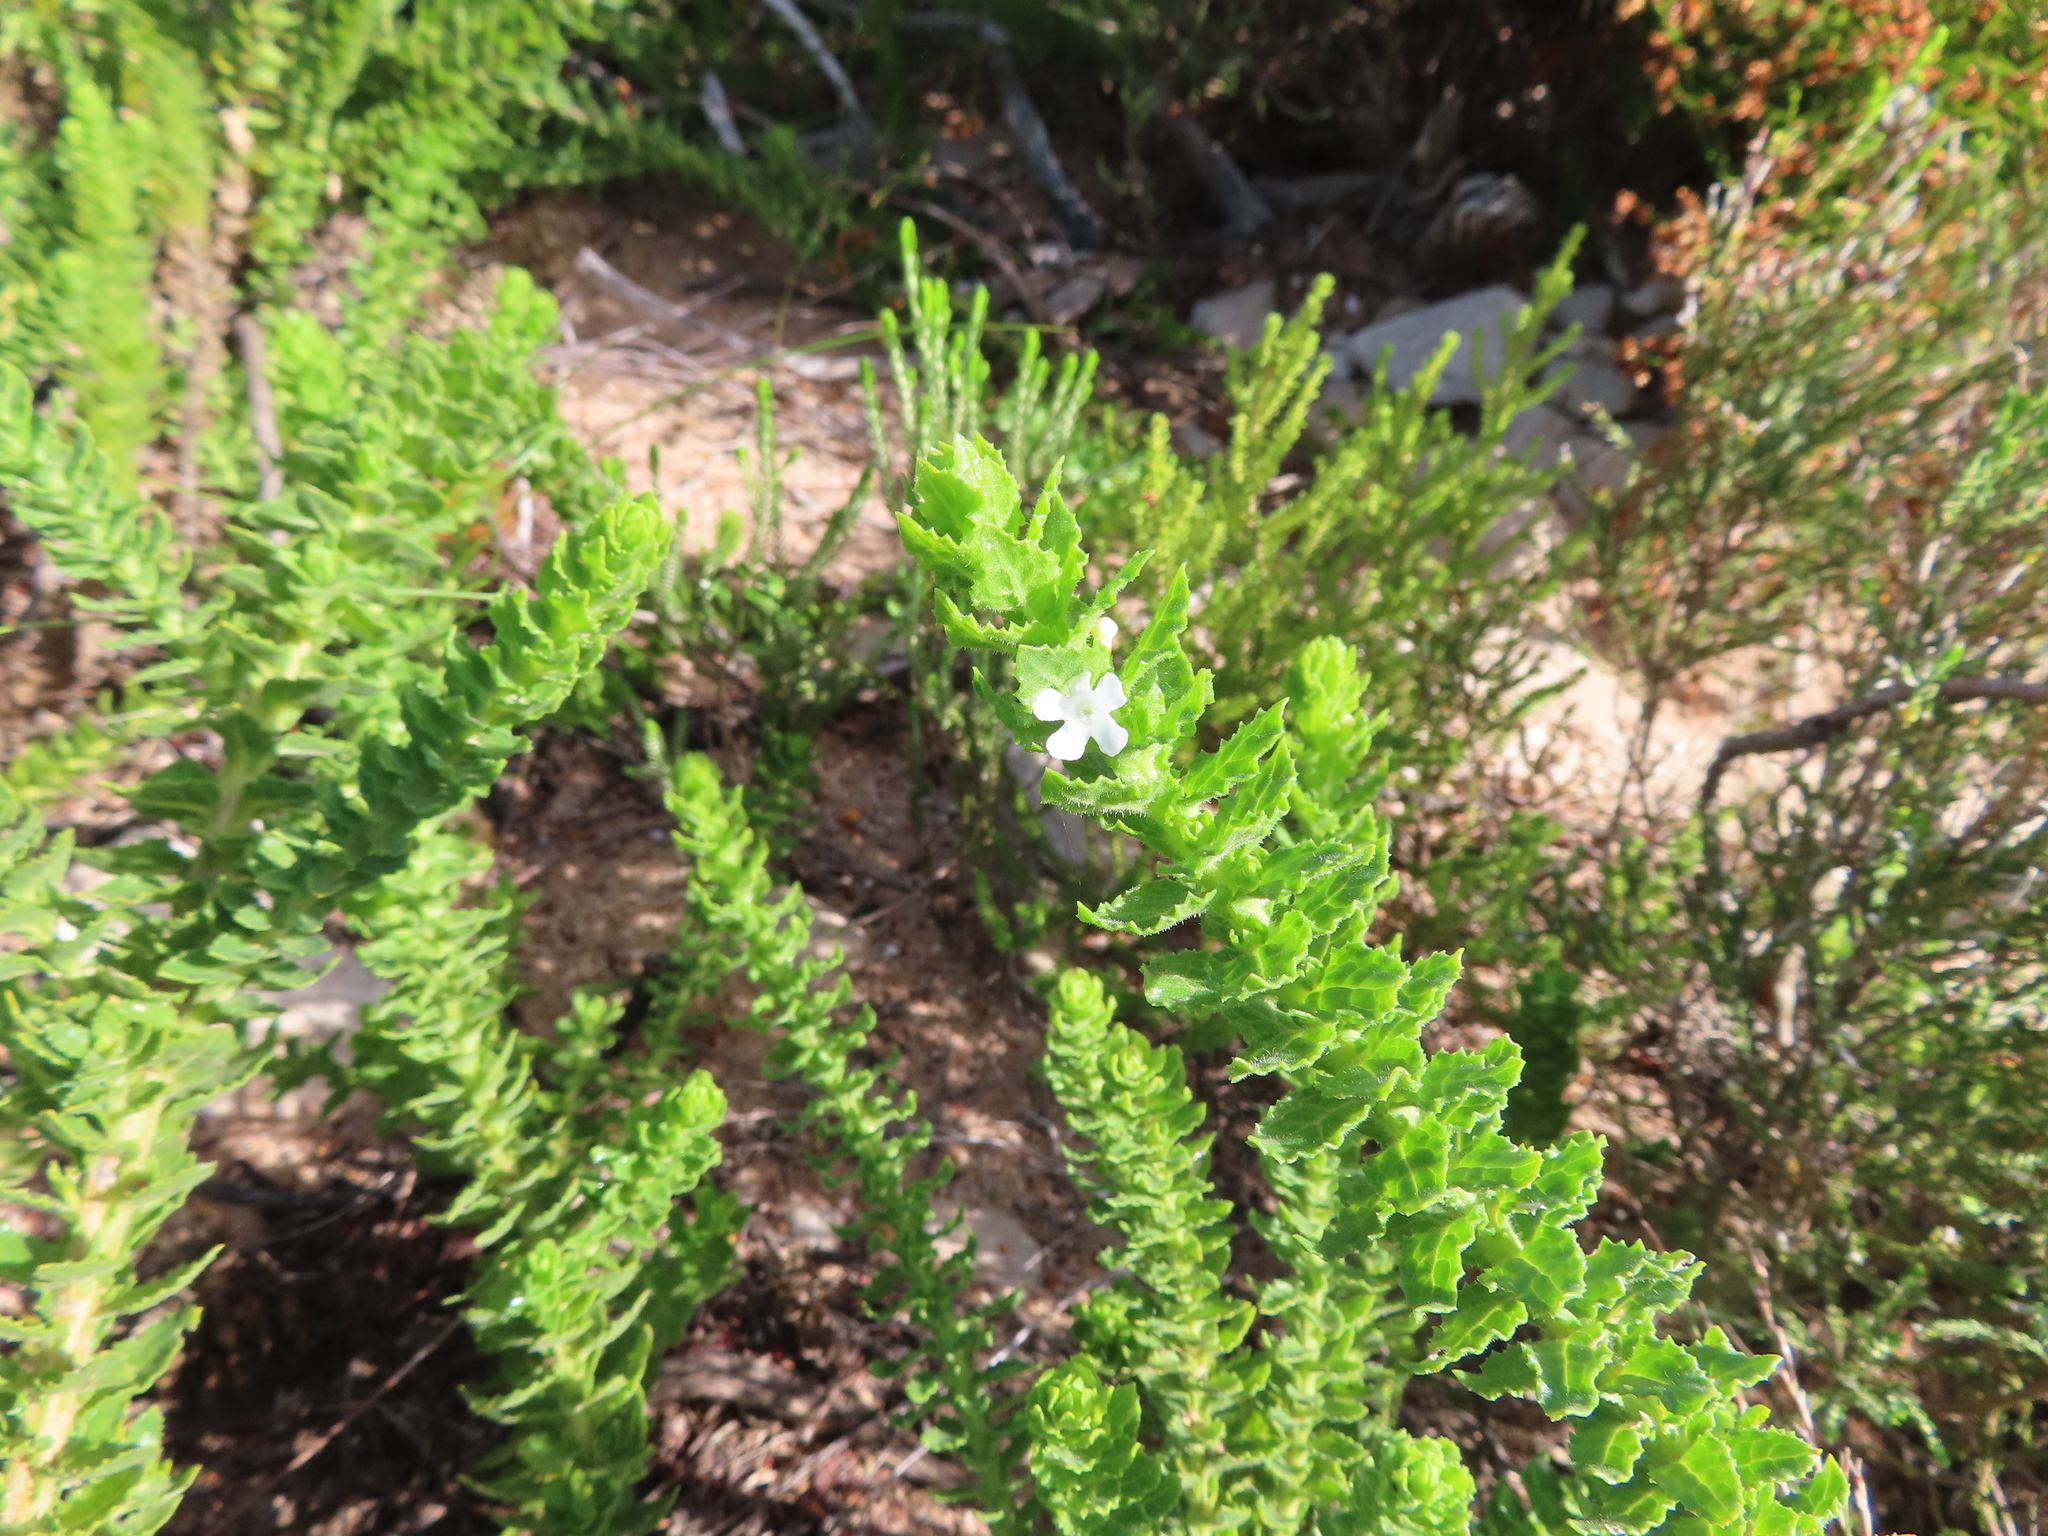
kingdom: Plantae
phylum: Tracheophyta
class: Magnoliopsida
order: Lamiales
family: Scrophulariaceae
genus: Oftia
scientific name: Oftia africana
